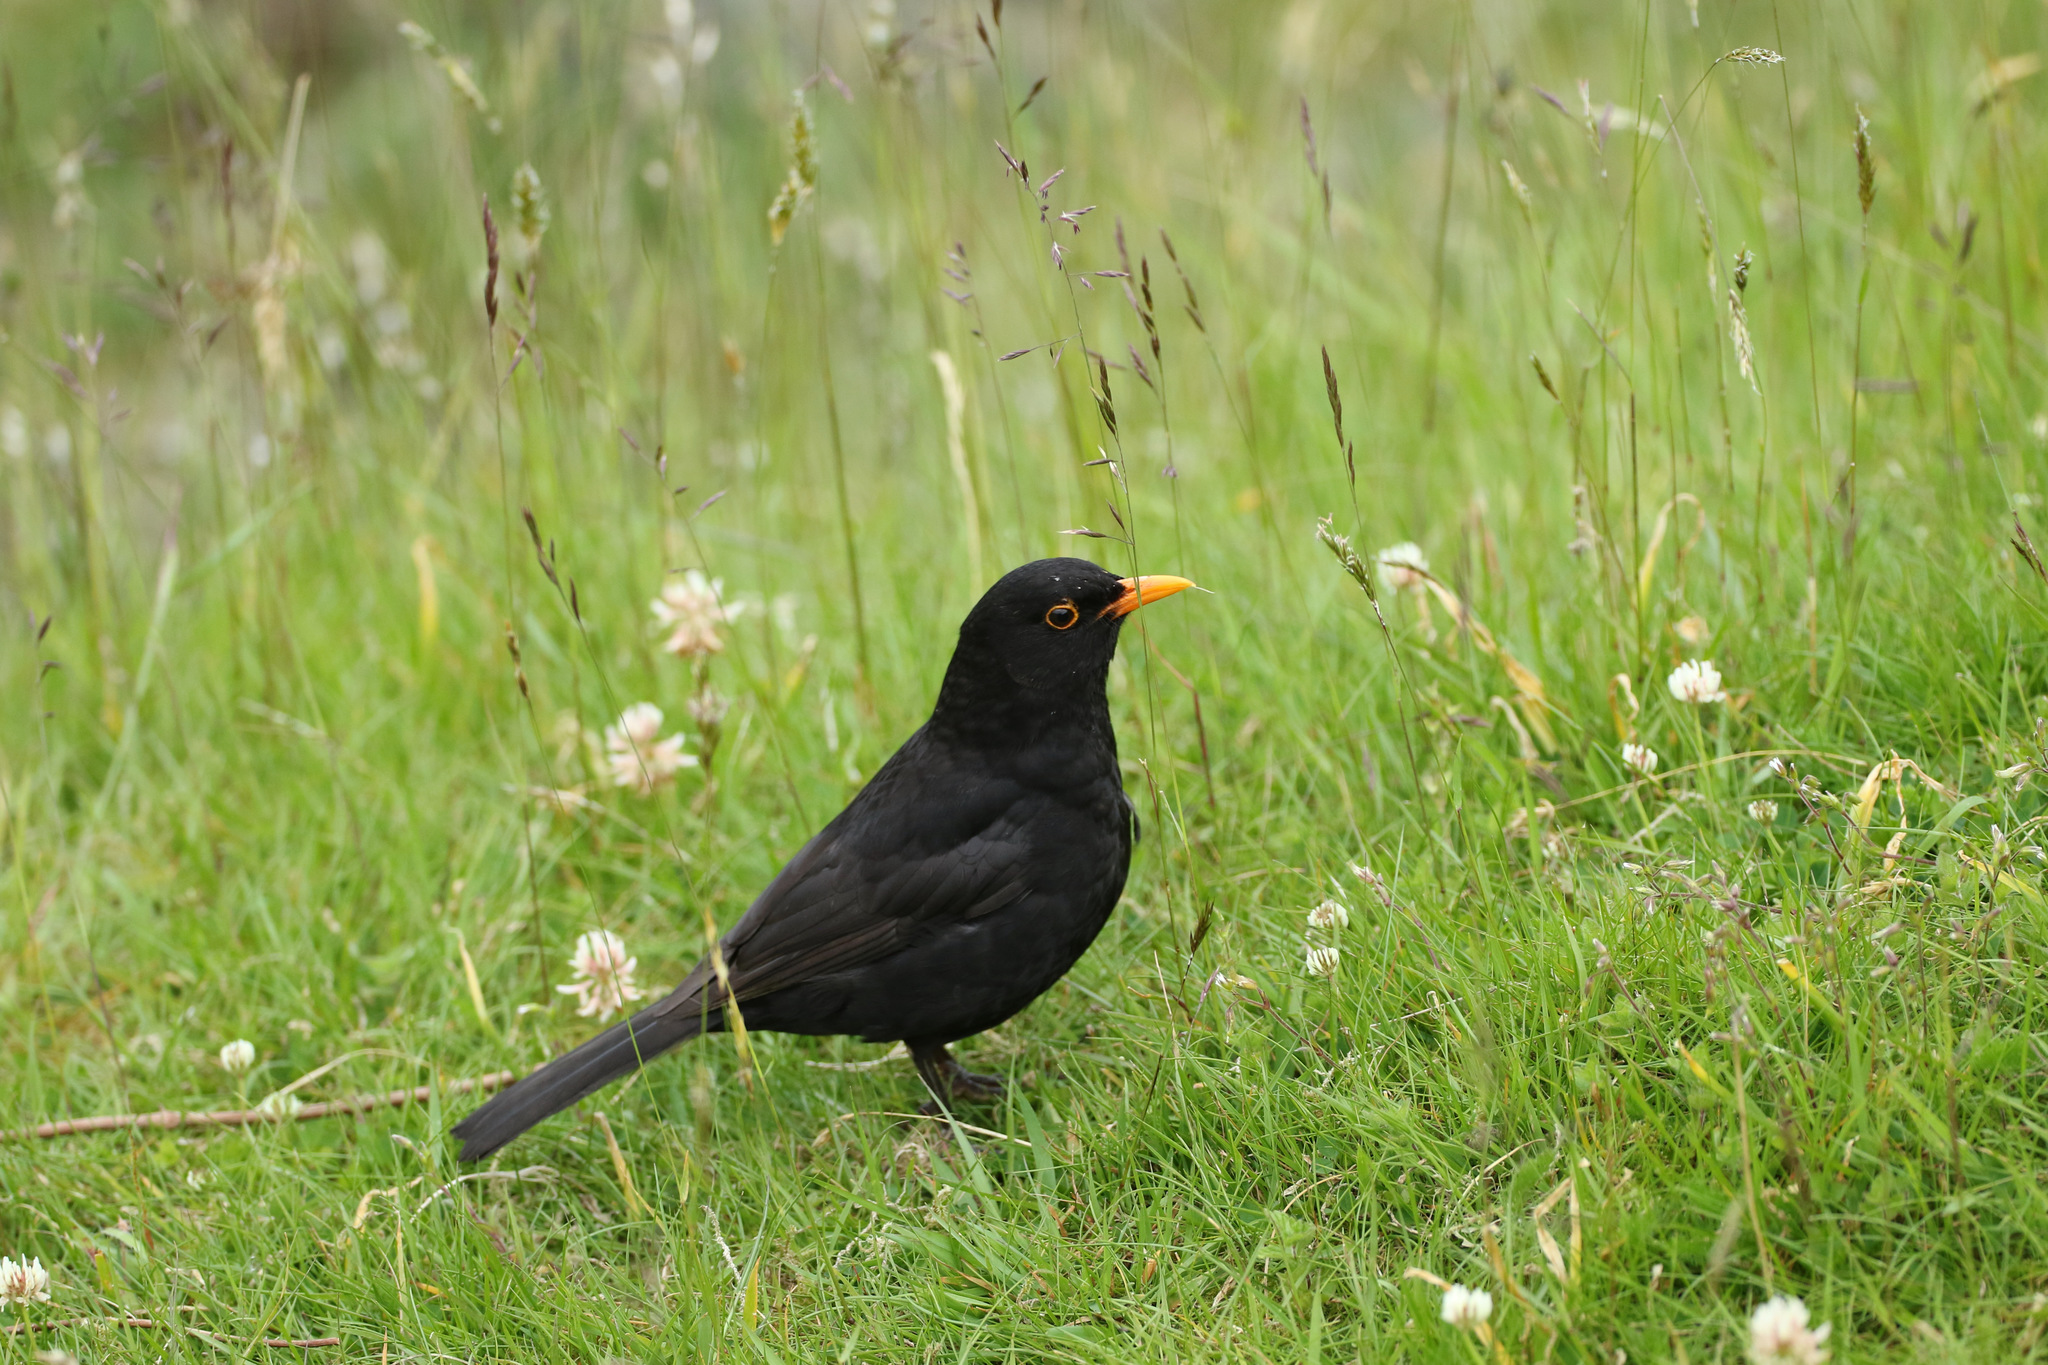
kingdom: Animalia
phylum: Chordata
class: Aves
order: Passeriformes
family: Turdidae
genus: Turdus
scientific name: Turdus merula
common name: Common blackbird
